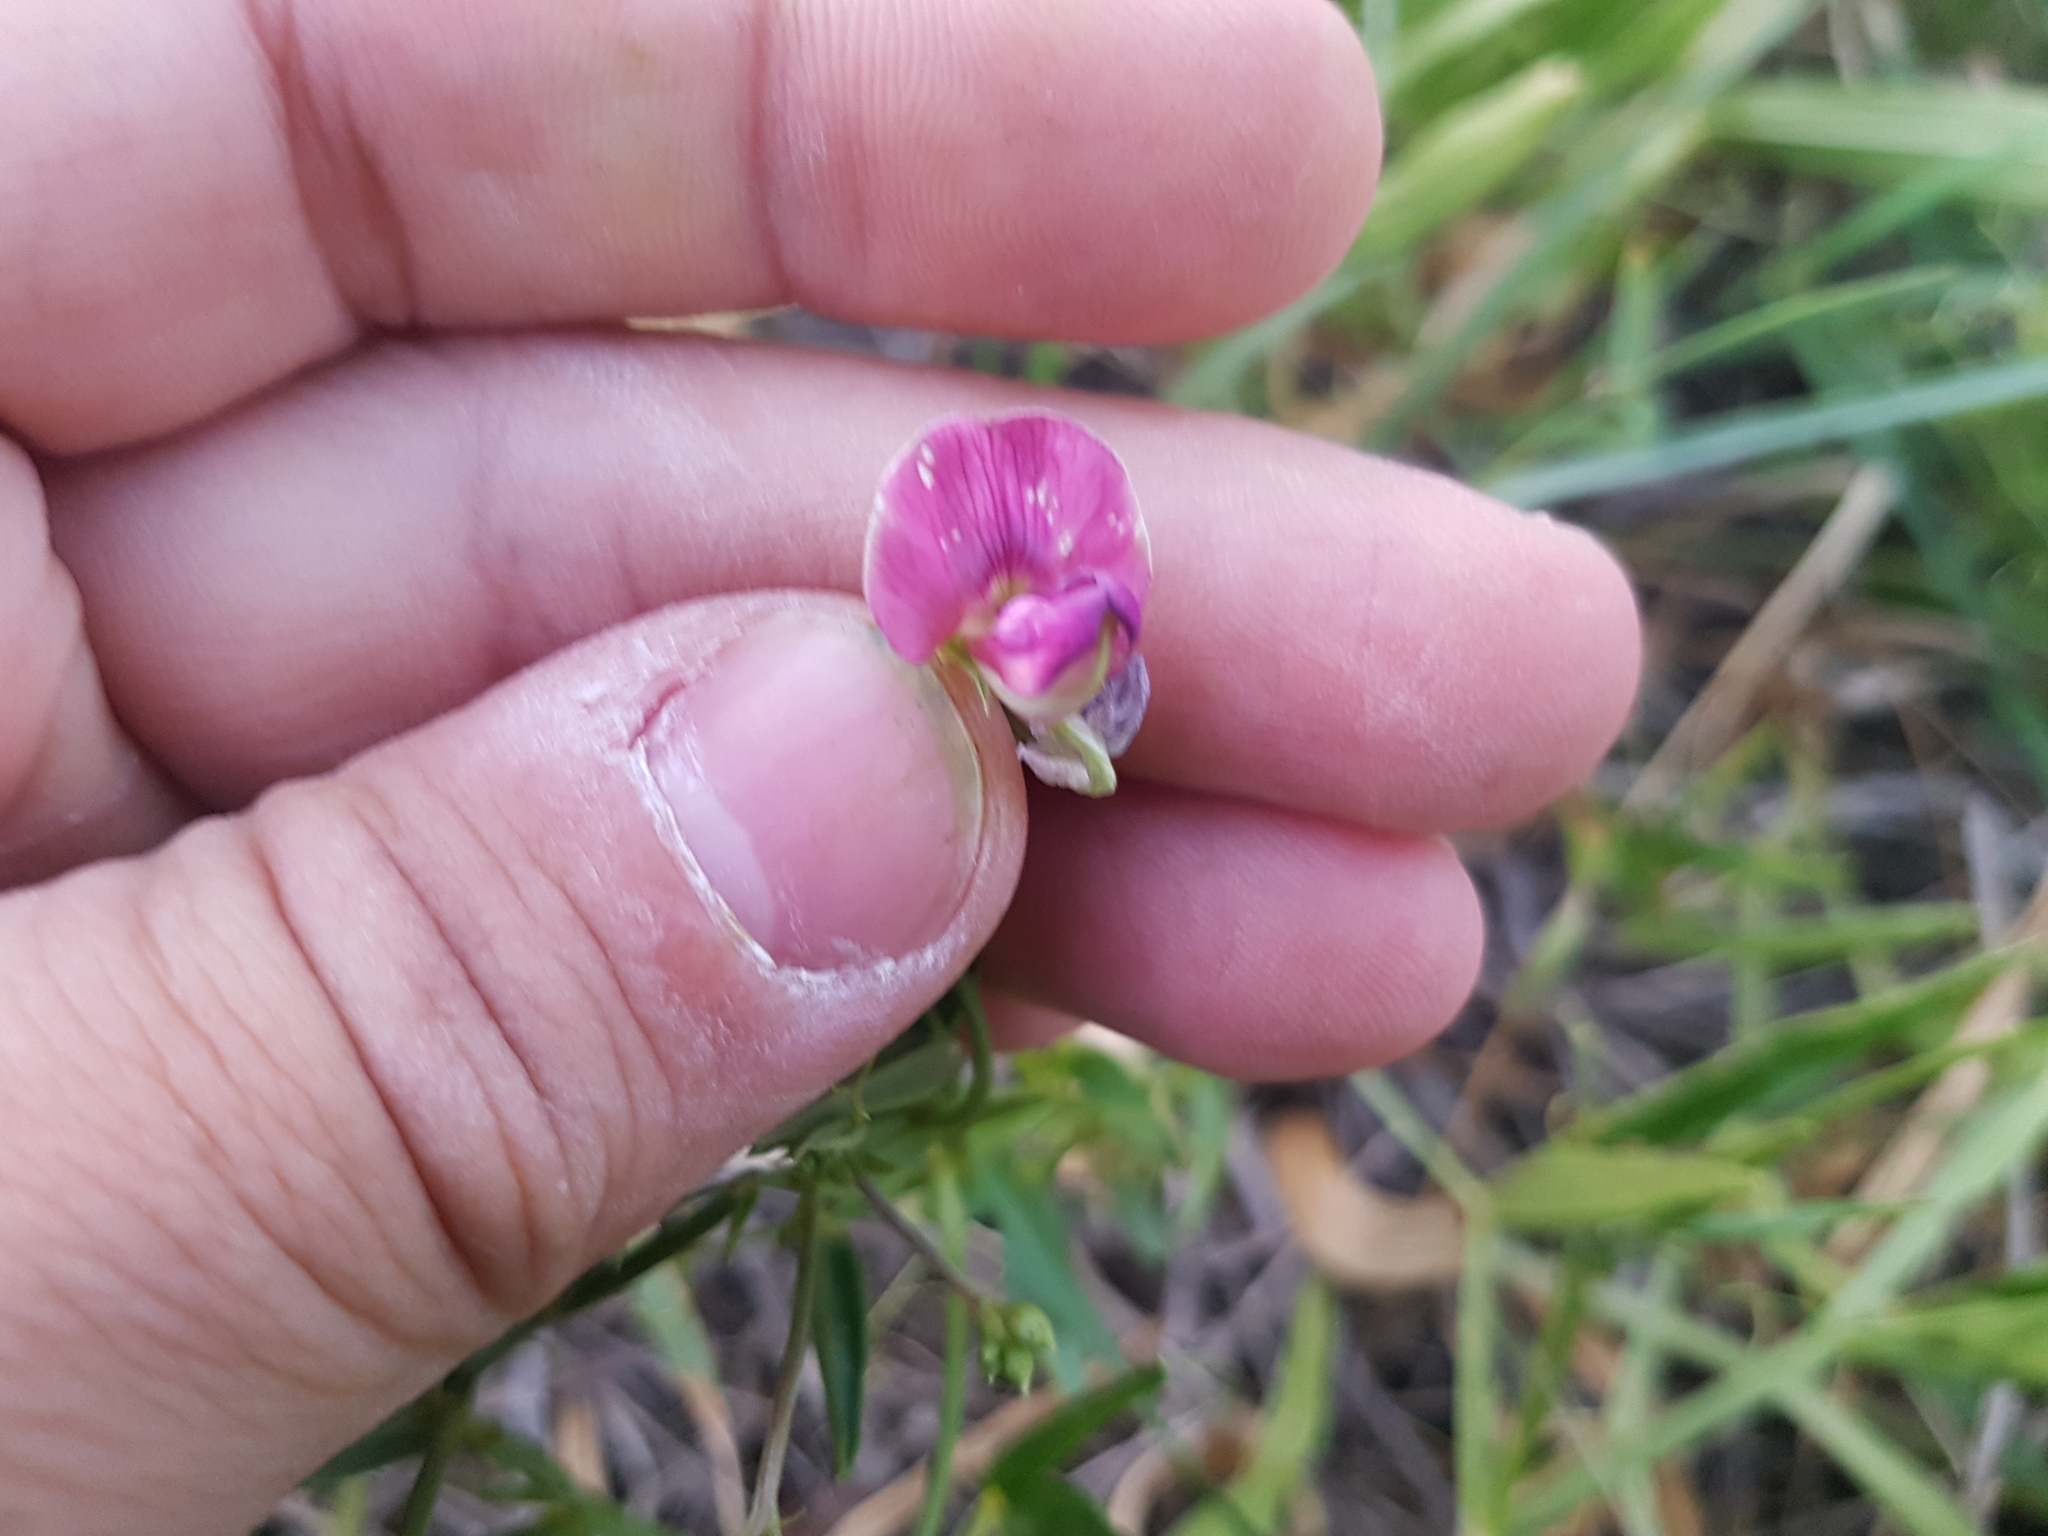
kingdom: Plantae
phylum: Tracheophyta
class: Magnoliopsida
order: Fabales
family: Fabaceae
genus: Lathyrus
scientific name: Lathyrus sylvestris
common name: Flat pea
